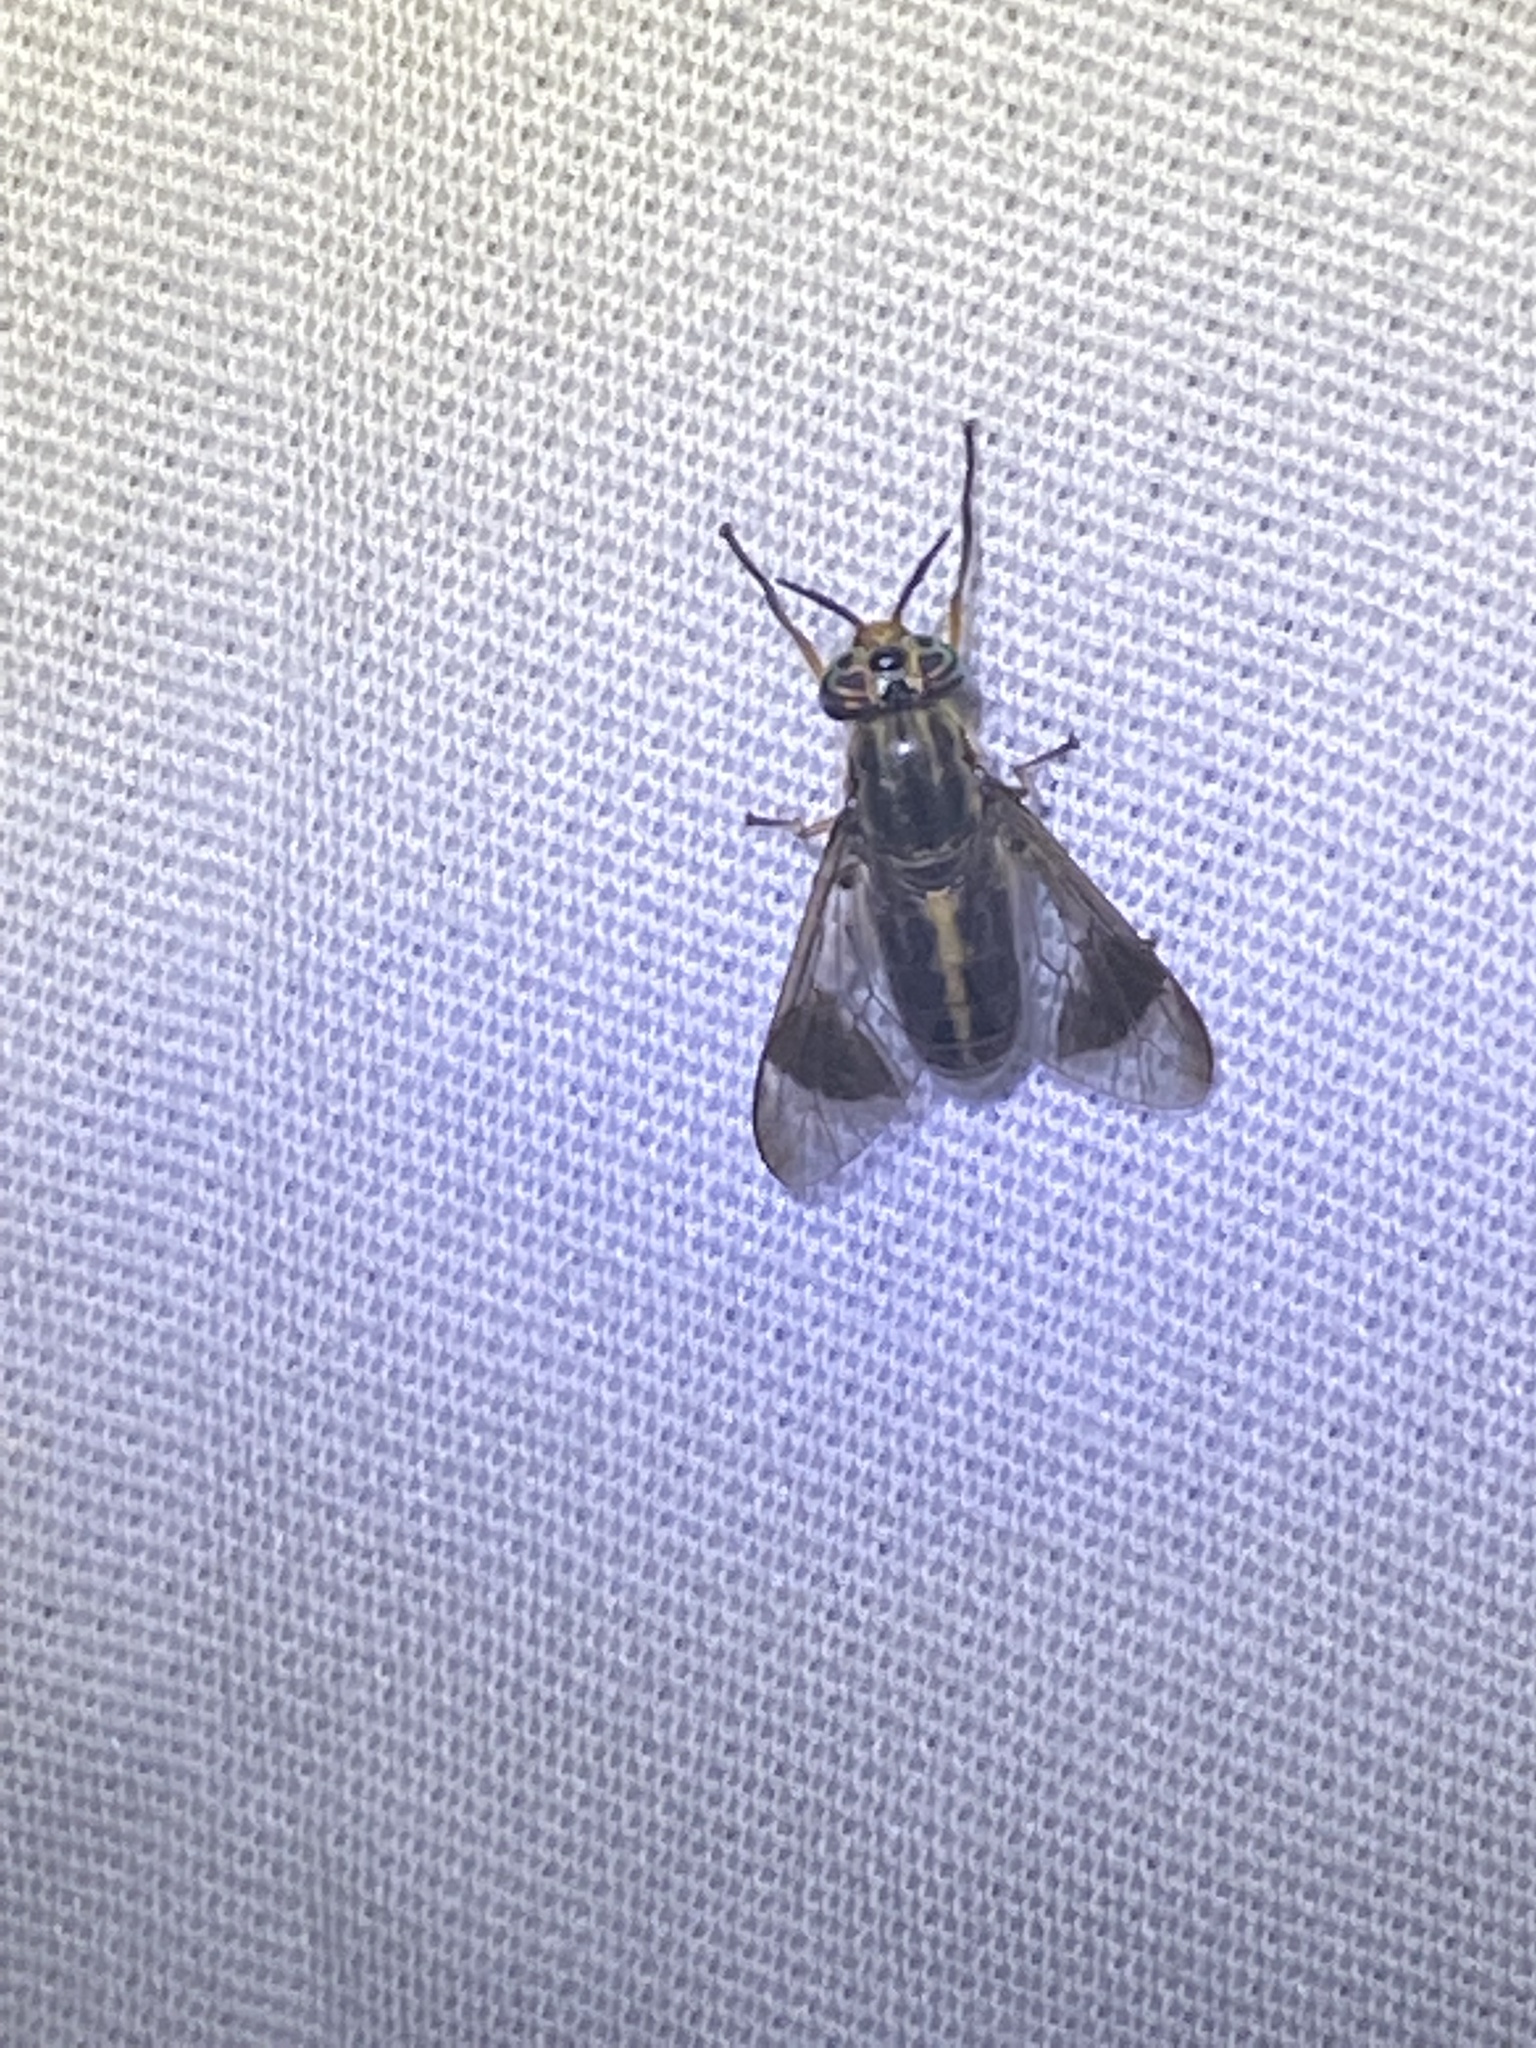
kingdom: Animalia
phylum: Arthropoda
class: Insecta
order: Diptera
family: Tabanidae
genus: Chrysops
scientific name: Chrysops univittatus
